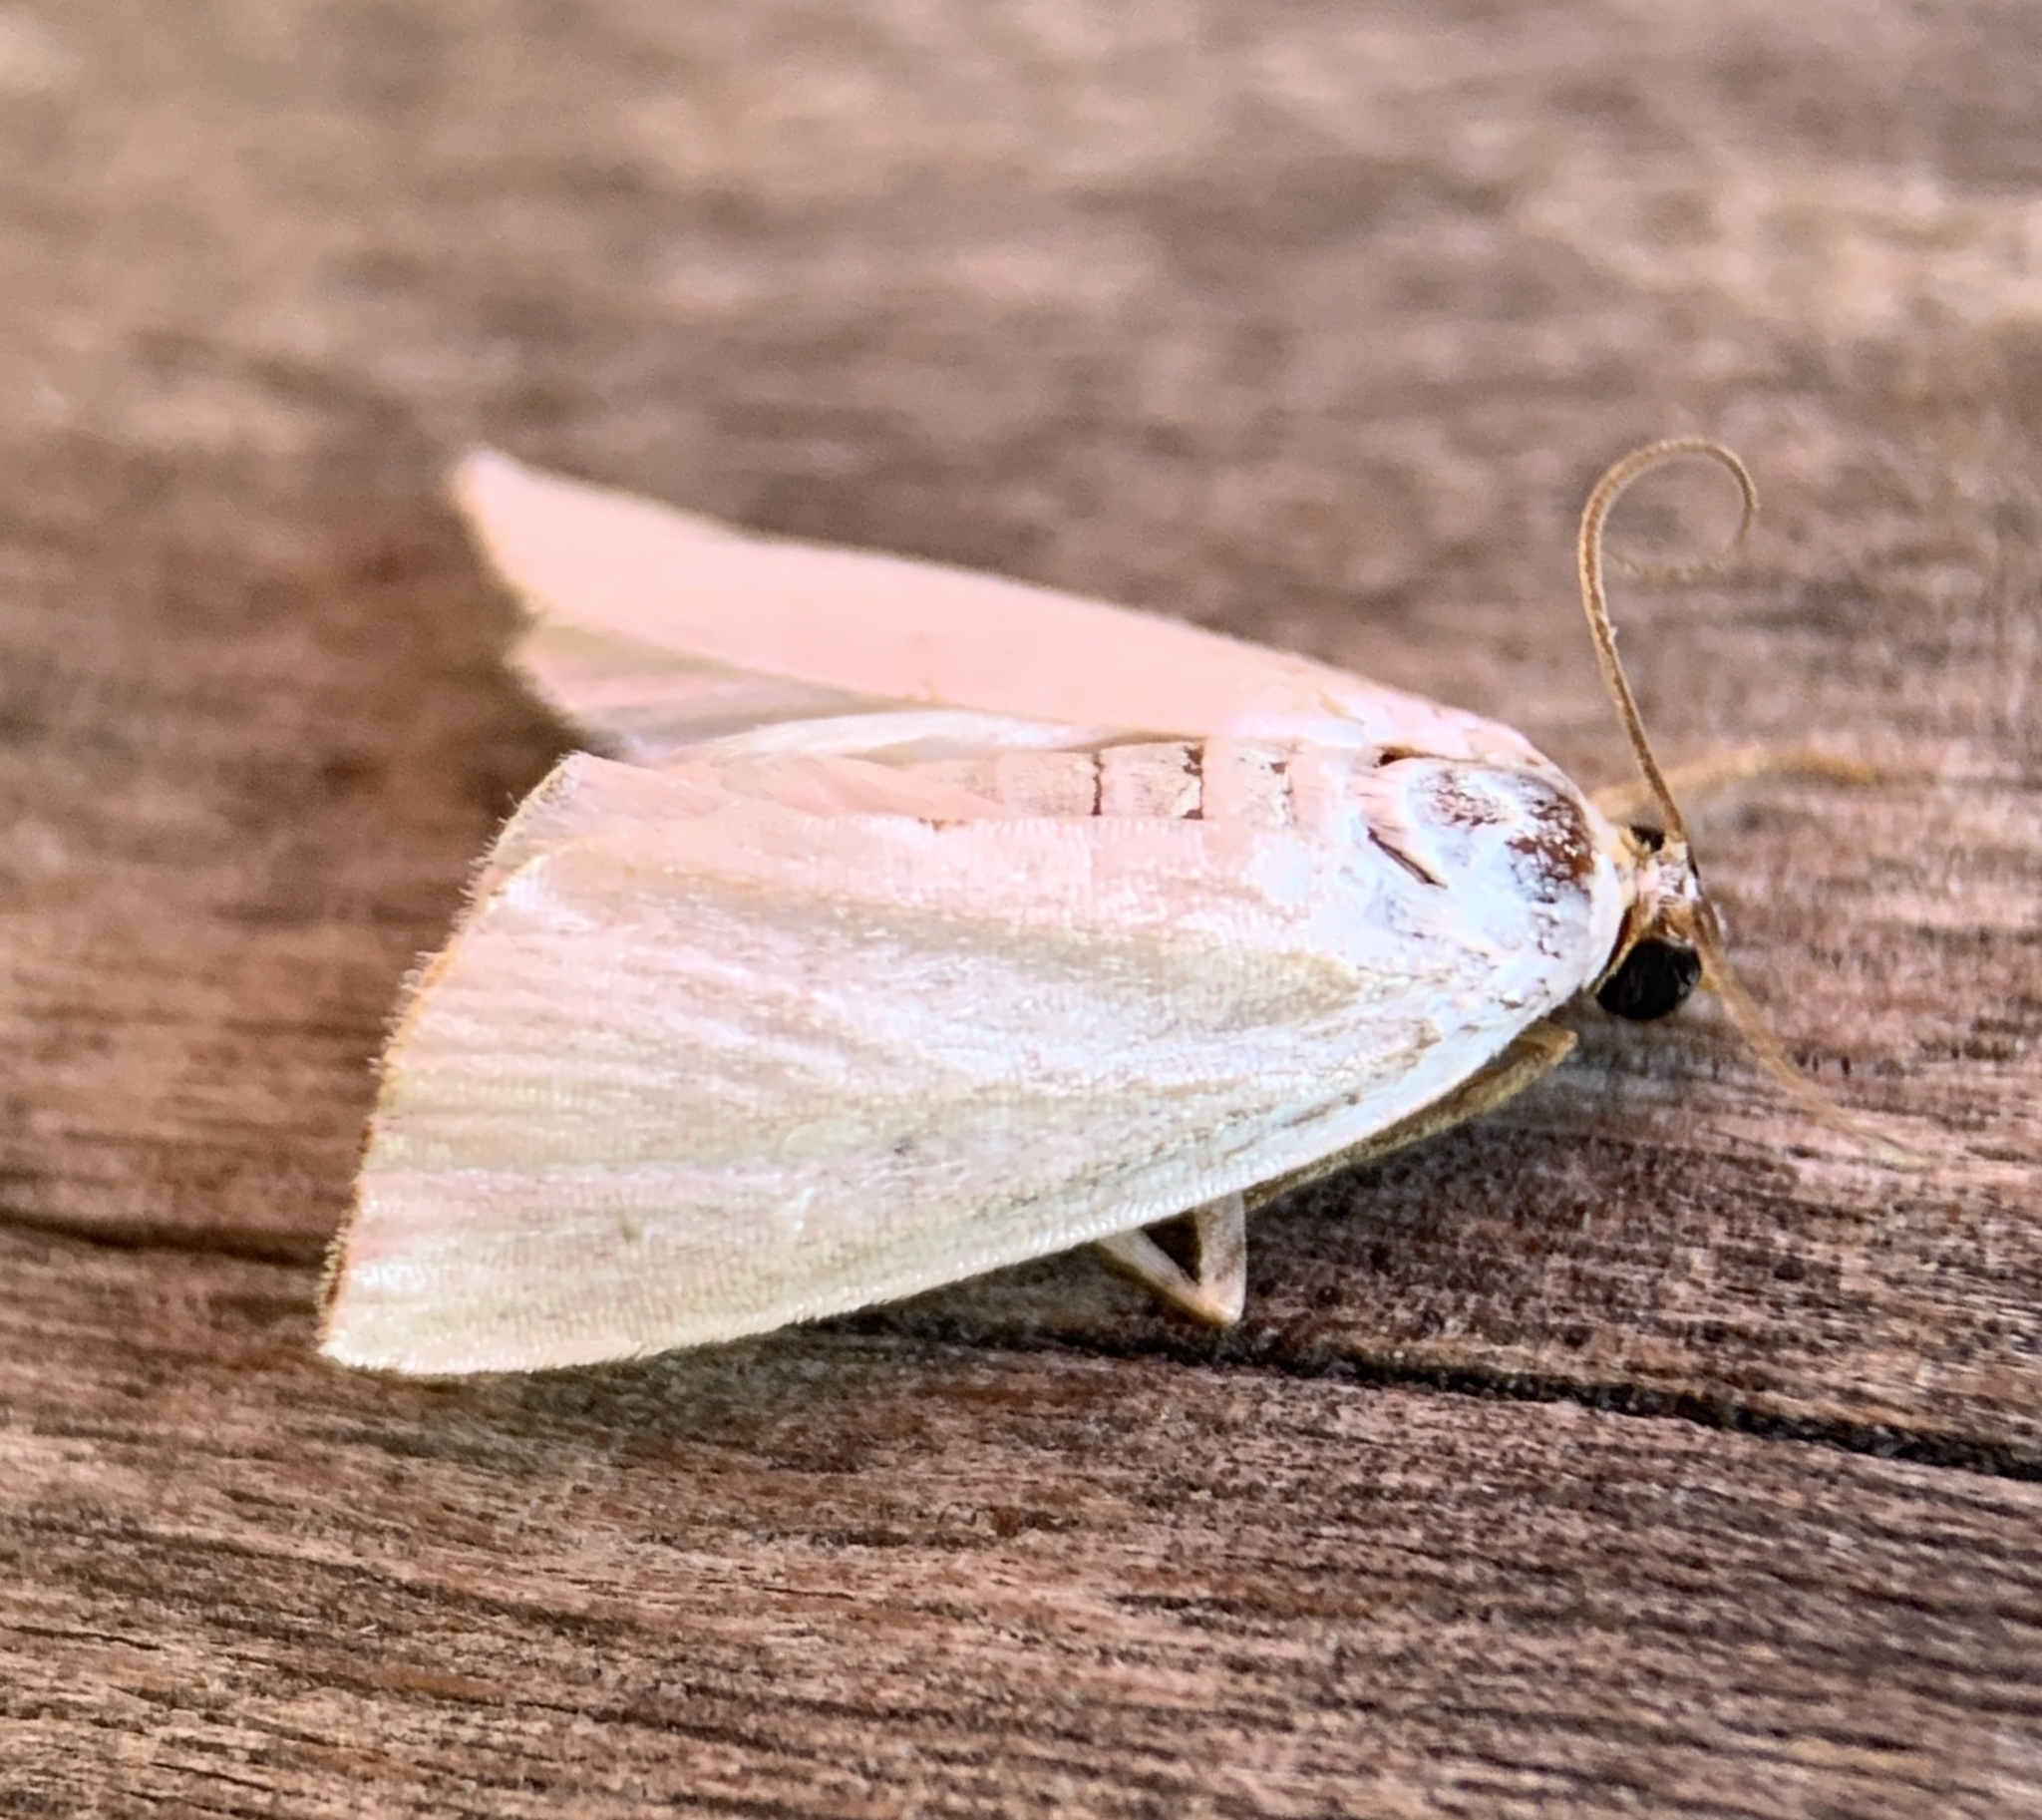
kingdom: Animalia
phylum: Arthropoda
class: Insecta
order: Lepidoptera
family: Crambidae
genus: Argyria
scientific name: Argyria nivalis
